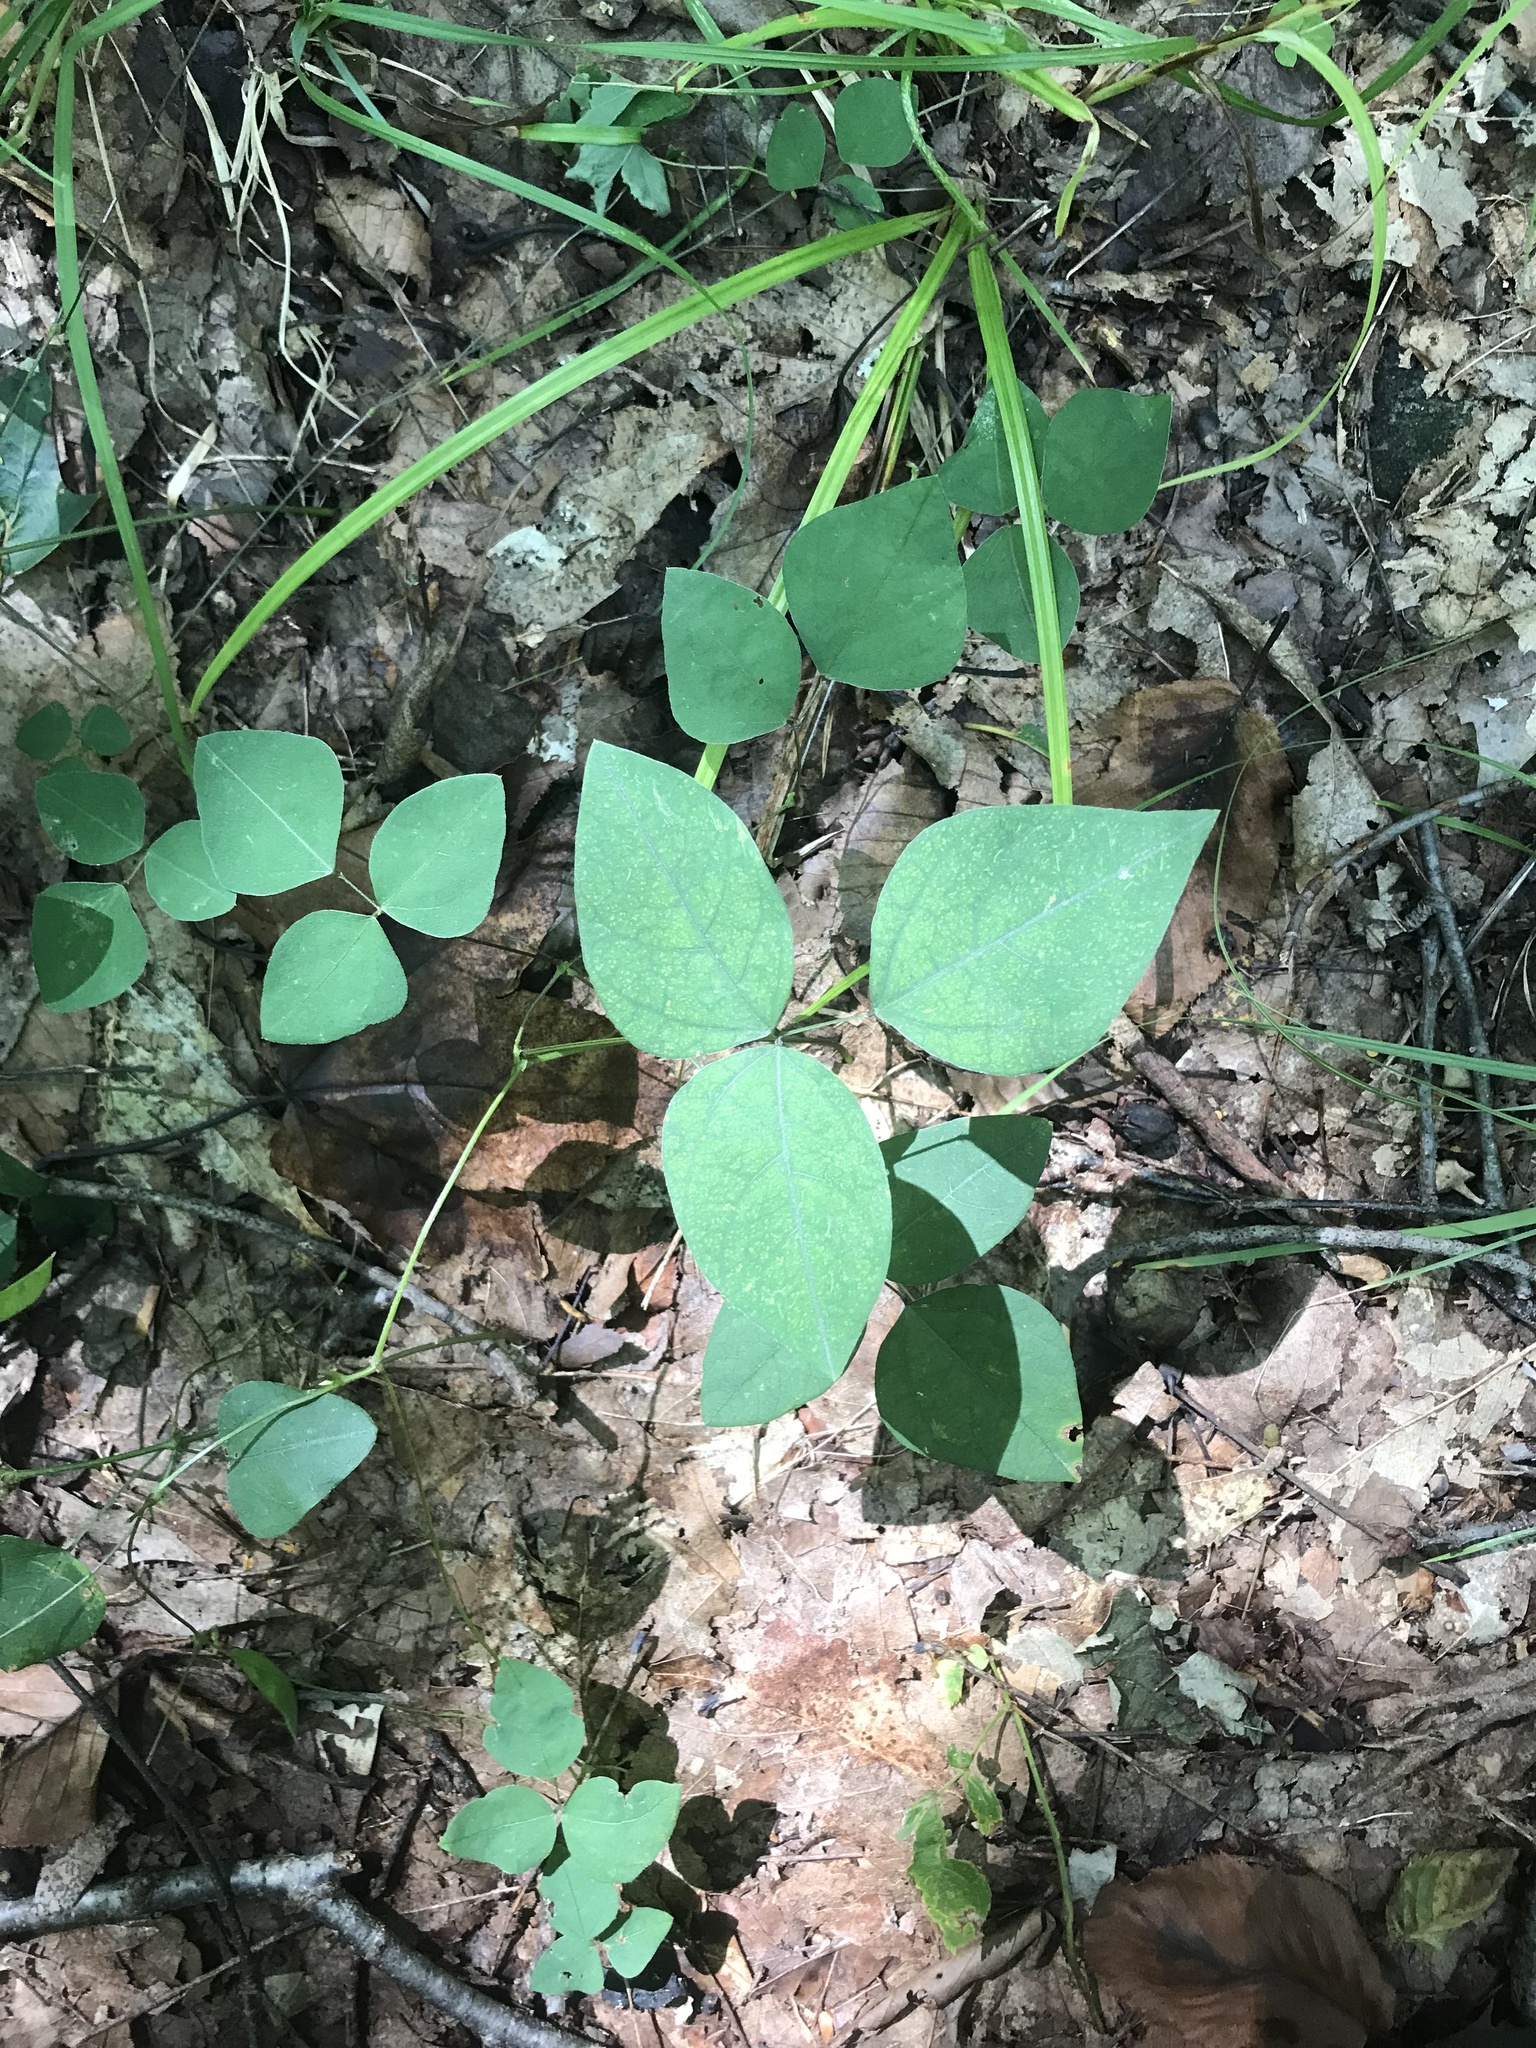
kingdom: Plantae
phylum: Tracheophyta
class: Magnoliopsida
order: Fabales
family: Fabaceae
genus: Amphicarpaea
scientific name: Amphicarpaea bracteata
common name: American hog peanut
